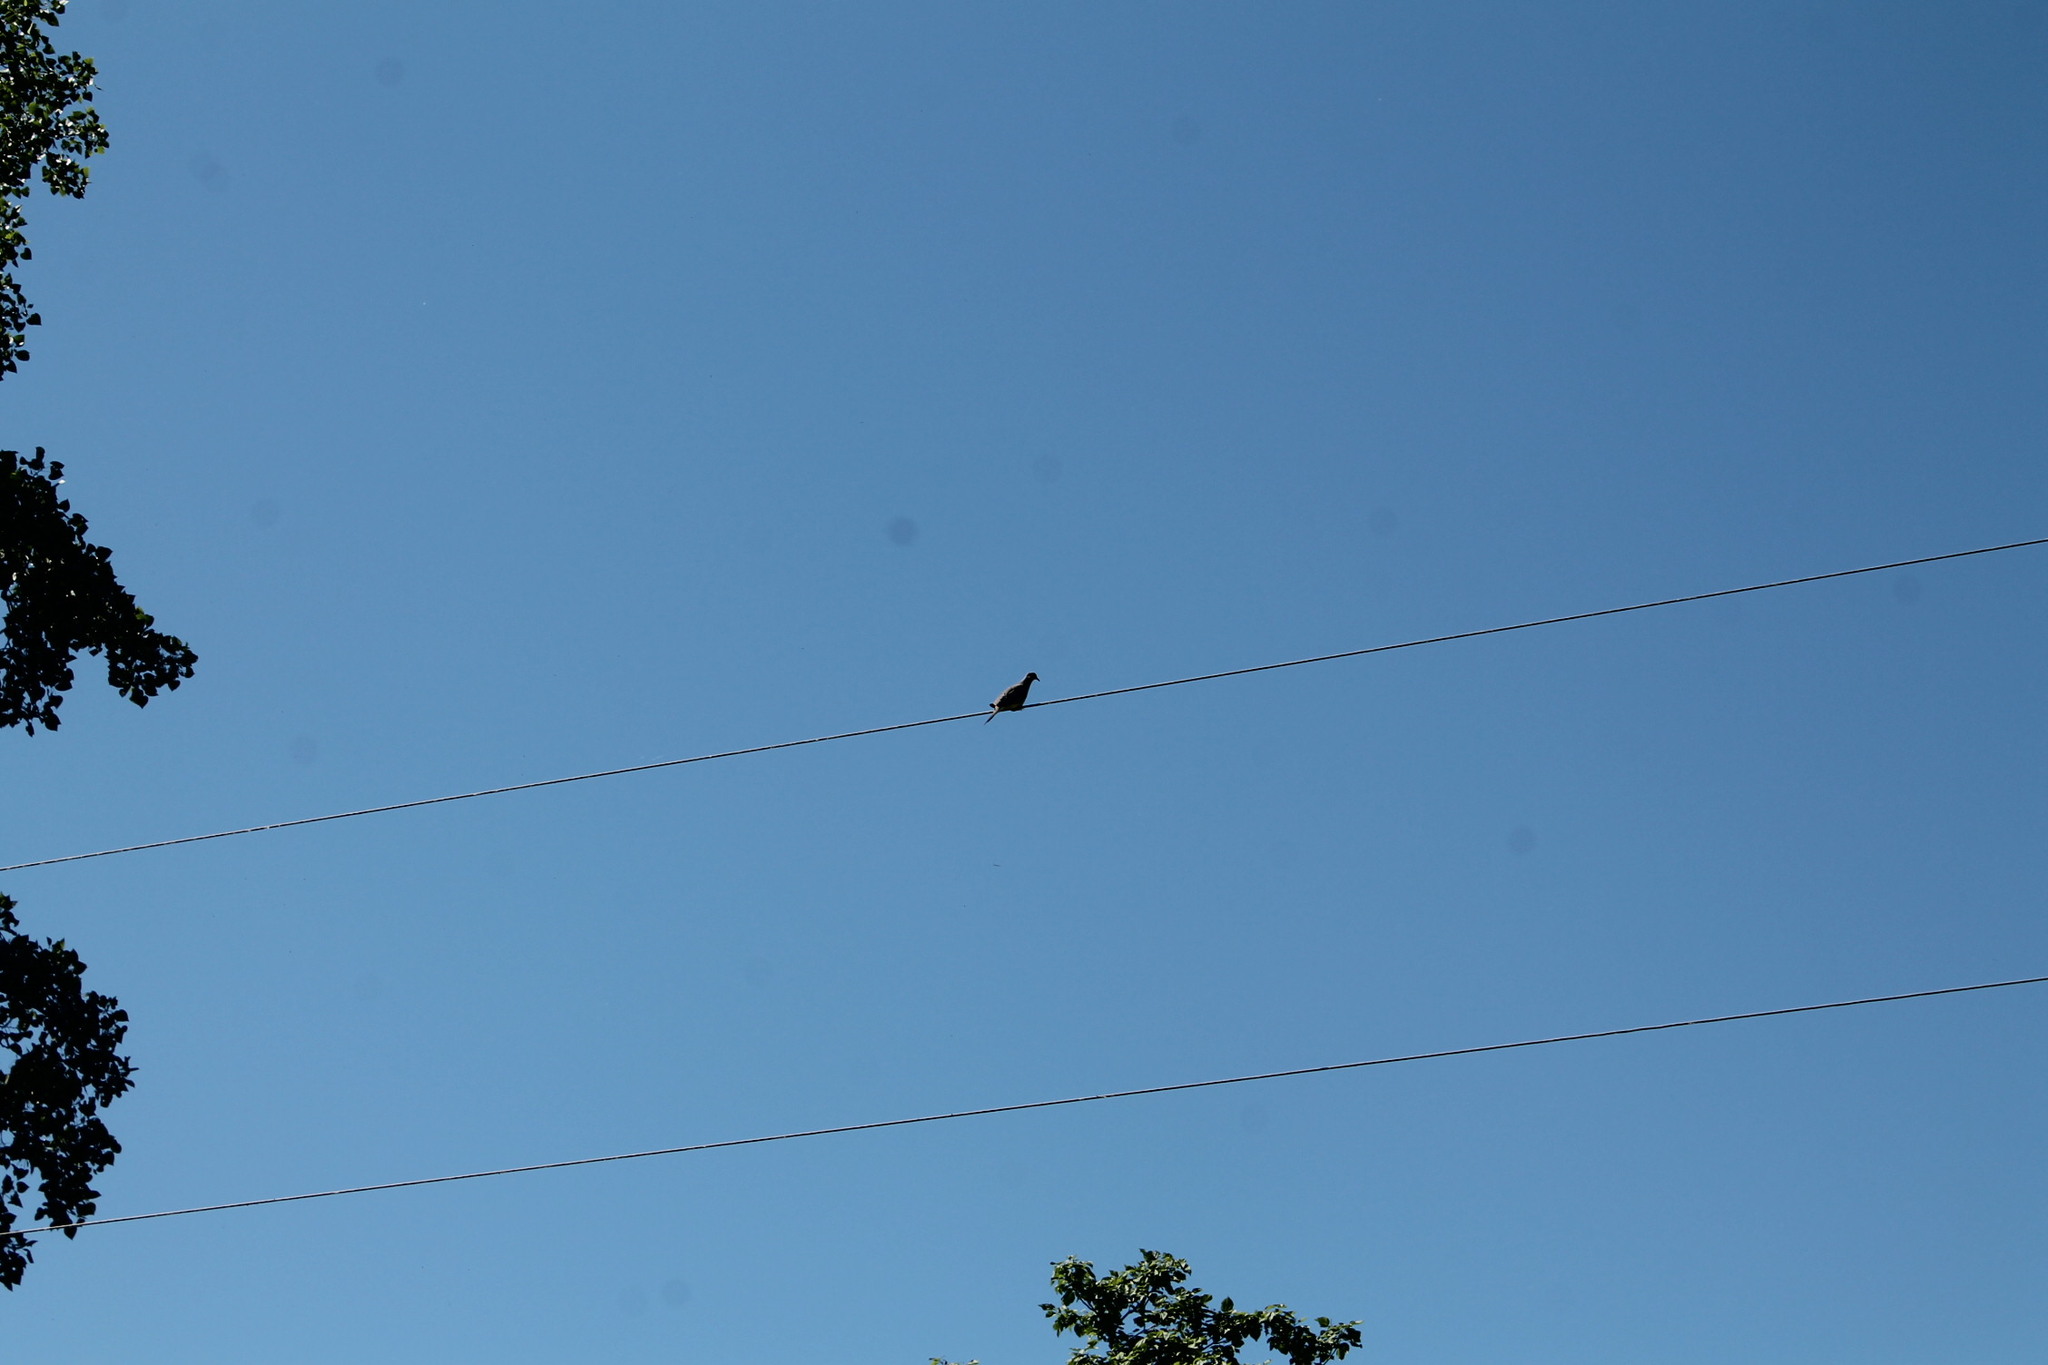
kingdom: Animalia
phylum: Chordata
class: Aves
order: Columbiformes
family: Columbidae
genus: Zenaida
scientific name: Zenaida macroura
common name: Mourning dove
